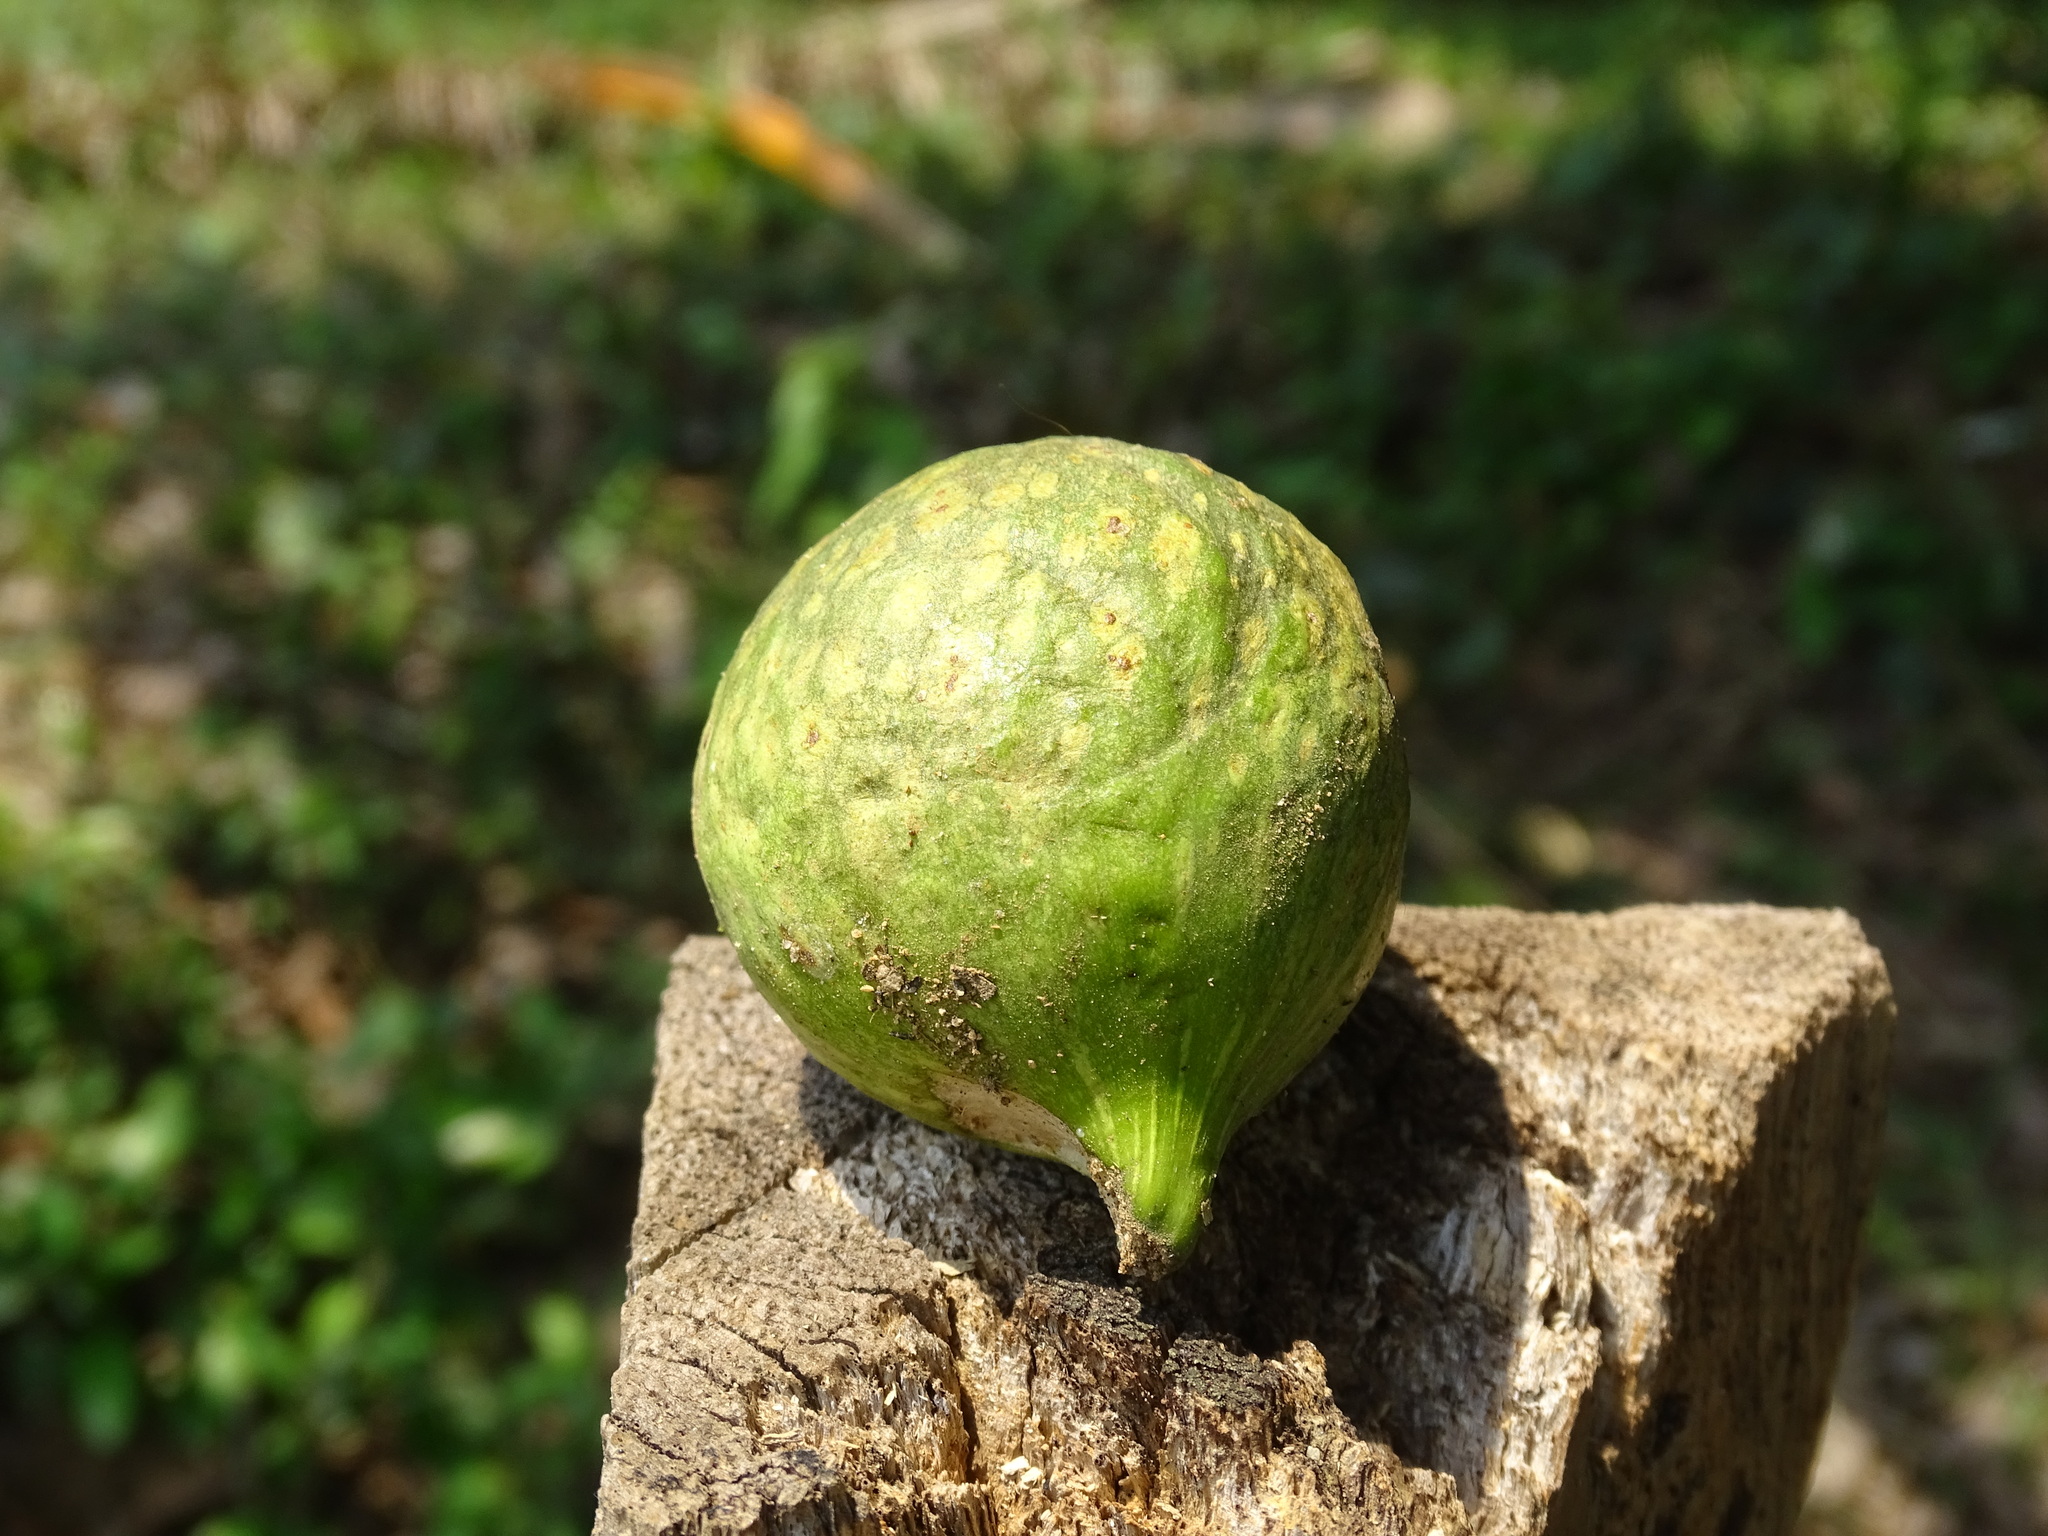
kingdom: Plantae
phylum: Tracheophyta
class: Magnoliopsida
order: Rosales
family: Moraceae
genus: Ficus
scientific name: Ficus insipida
